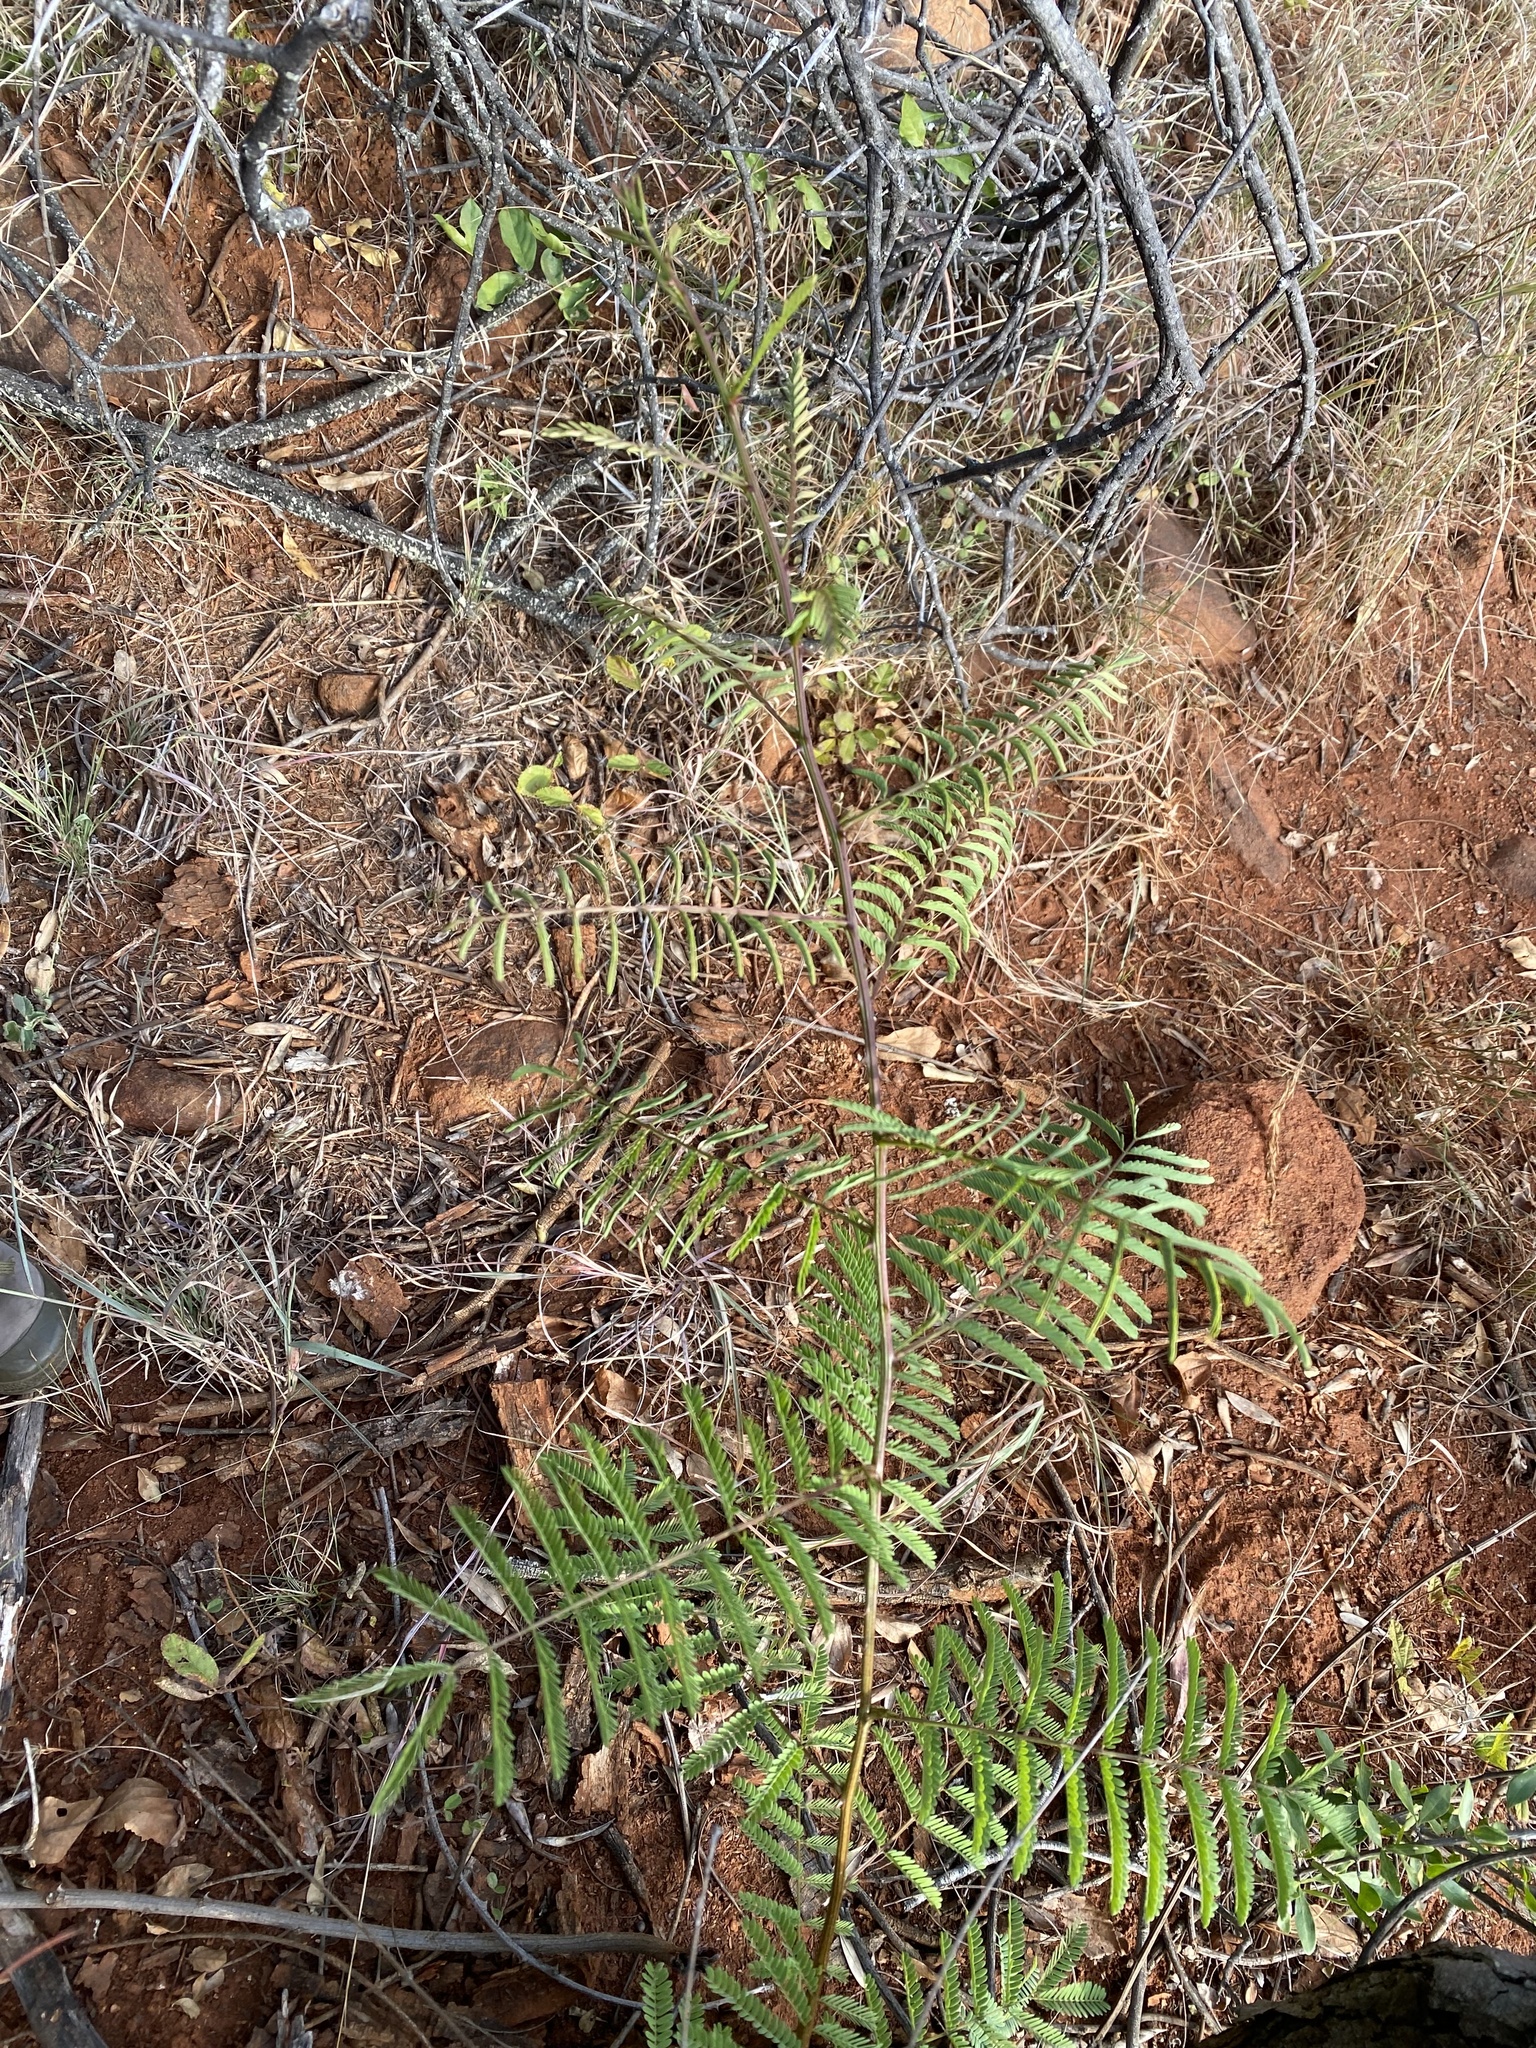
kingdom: Plantae
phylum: Tracheophyta
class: Magnoliopsida
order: Fabales
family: Fabaceae
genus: Senegalia
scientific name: Senegalia caffra
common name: Cat thorn
